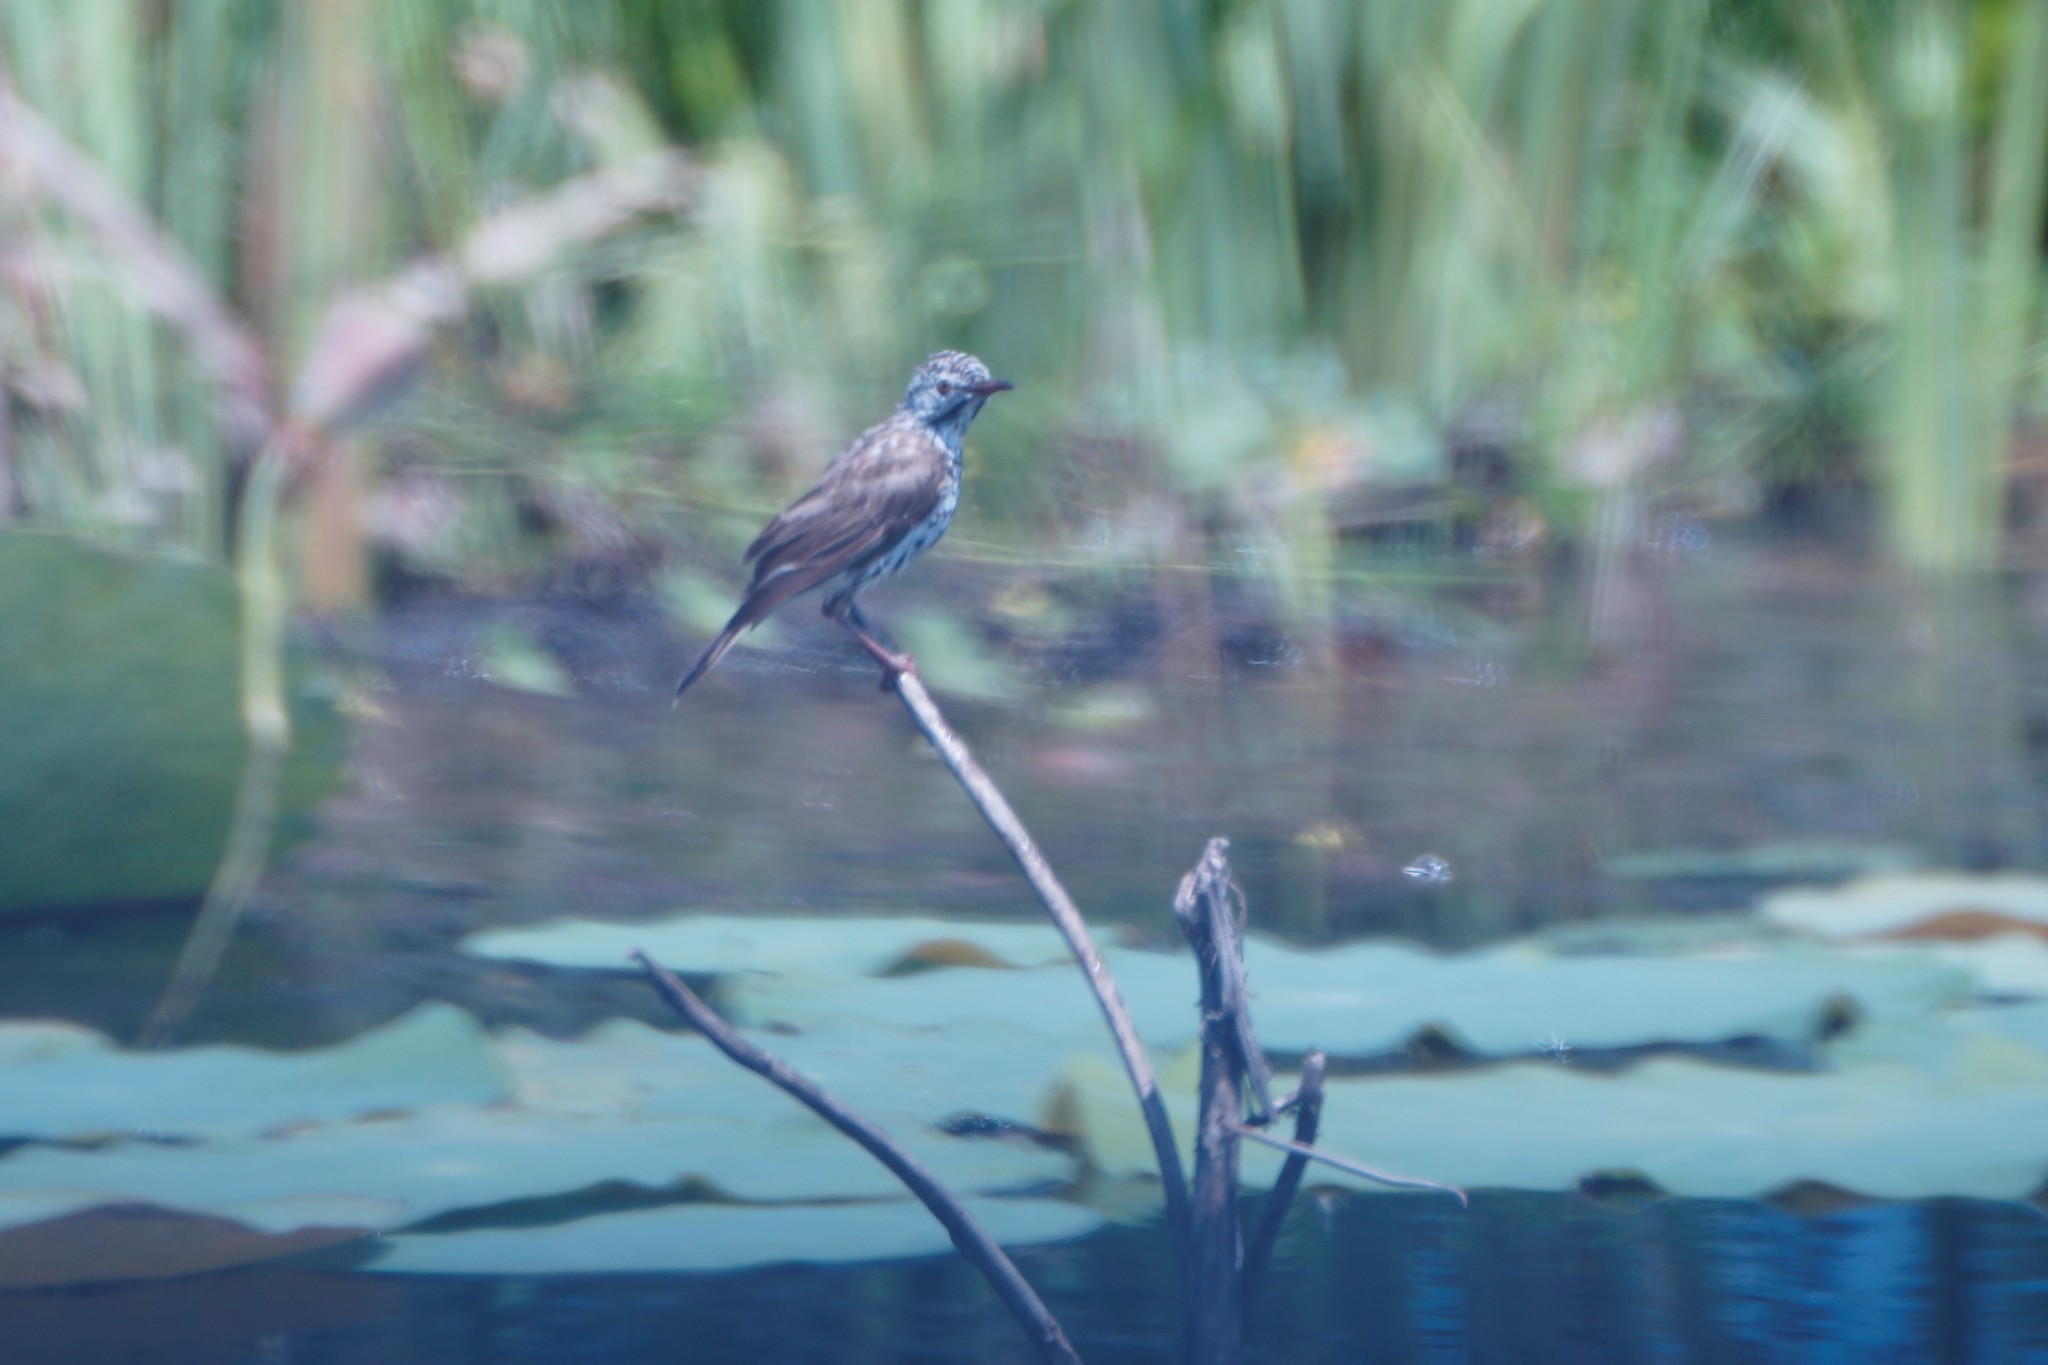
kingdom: Animalia
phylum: Chordata
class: Aves
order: Passeriformes
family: Meliphagidae
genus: Ramsayornis
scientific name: Ramsayornis fasciatus
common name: Bar-breasted honeyeater
